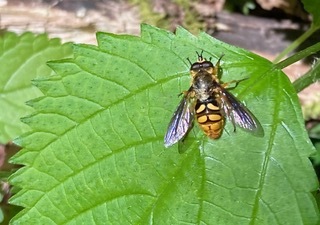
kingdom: Animalia
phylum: Arthropoda
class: Insecta
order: Diptera
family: Syrphidae
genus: Somula
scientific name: Somula decora
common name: Spotted wood fly
